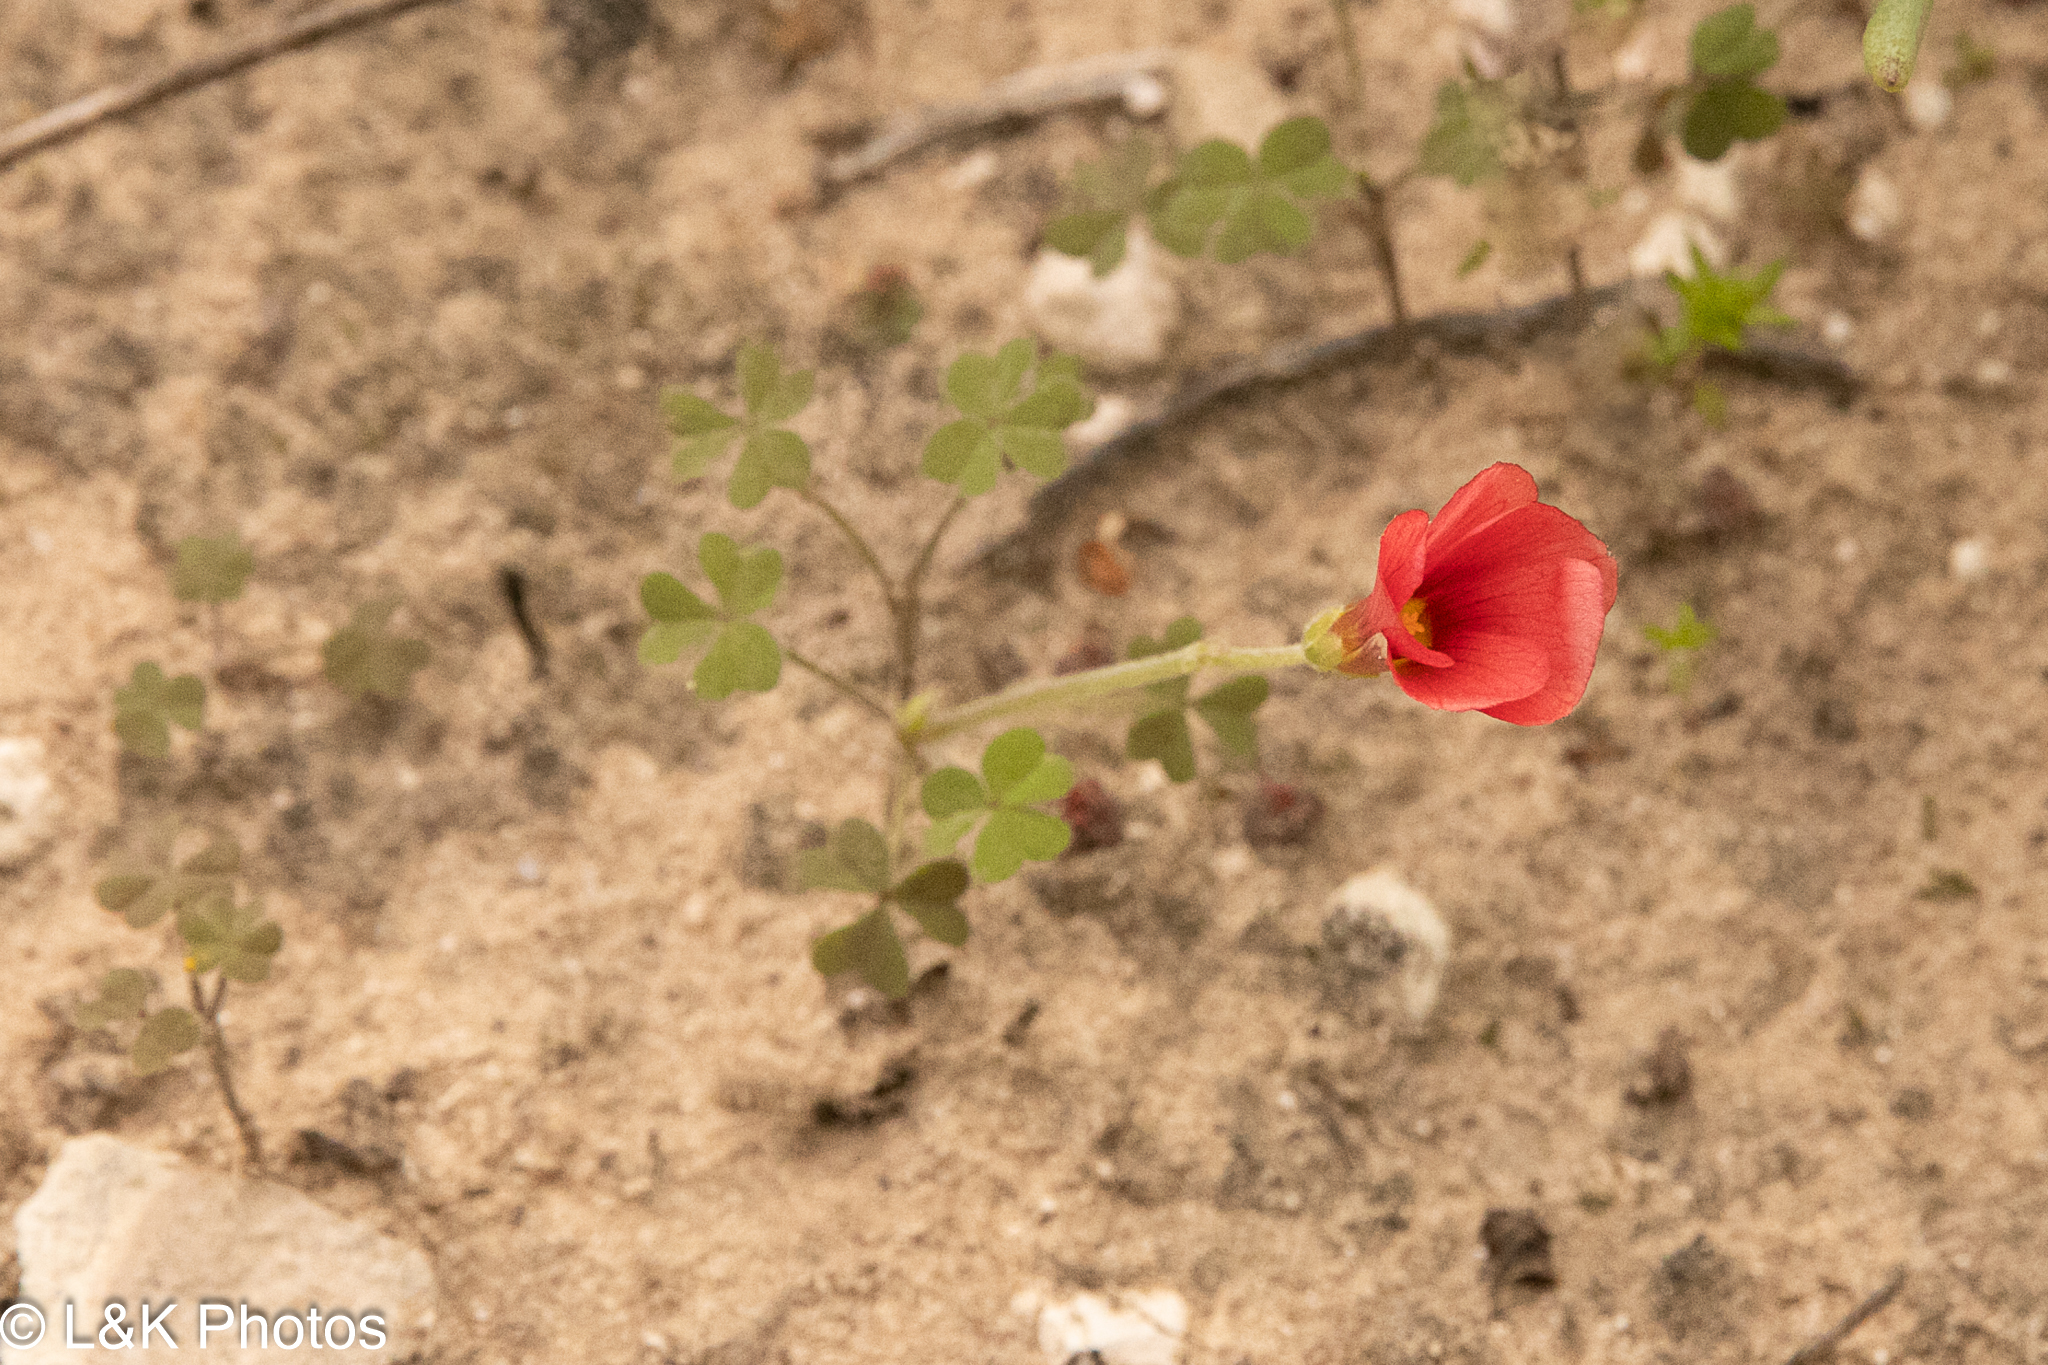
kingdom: Plantae
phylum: Tracheophyta
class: Magnoliopsida
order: Oxalidales
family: Oxalidaceae
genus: Oxalis
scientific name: Oxalis obtusa
